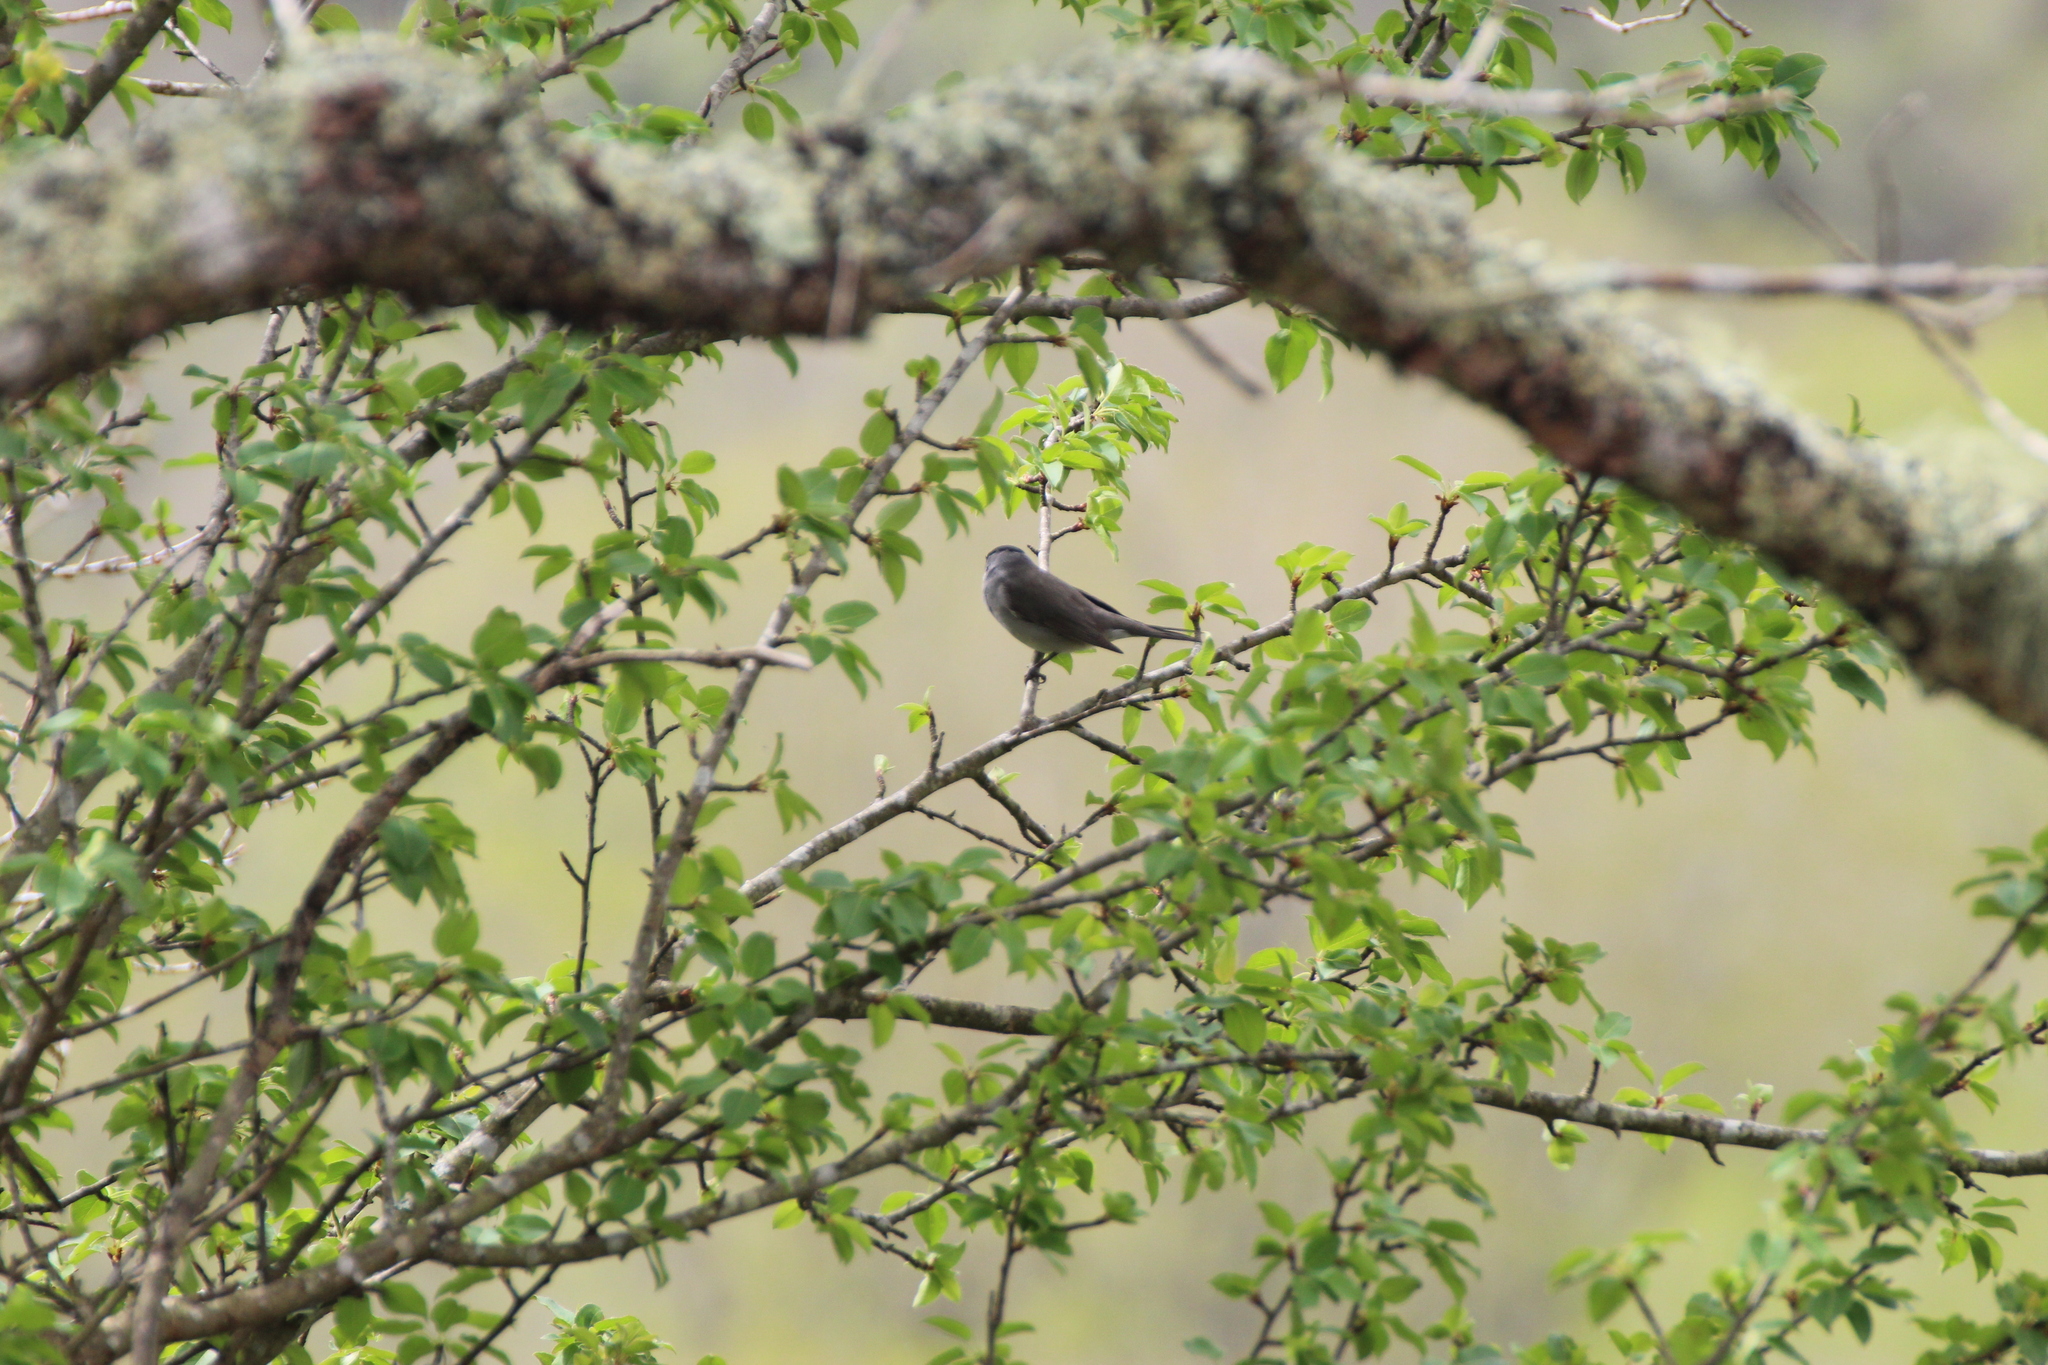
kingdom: Animalia
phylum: Chordata
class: Aves
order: Passeriformes
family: Sylviidae
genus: Sylvia
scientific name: Sylvia atricapilla
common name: Eurasian blackcap
